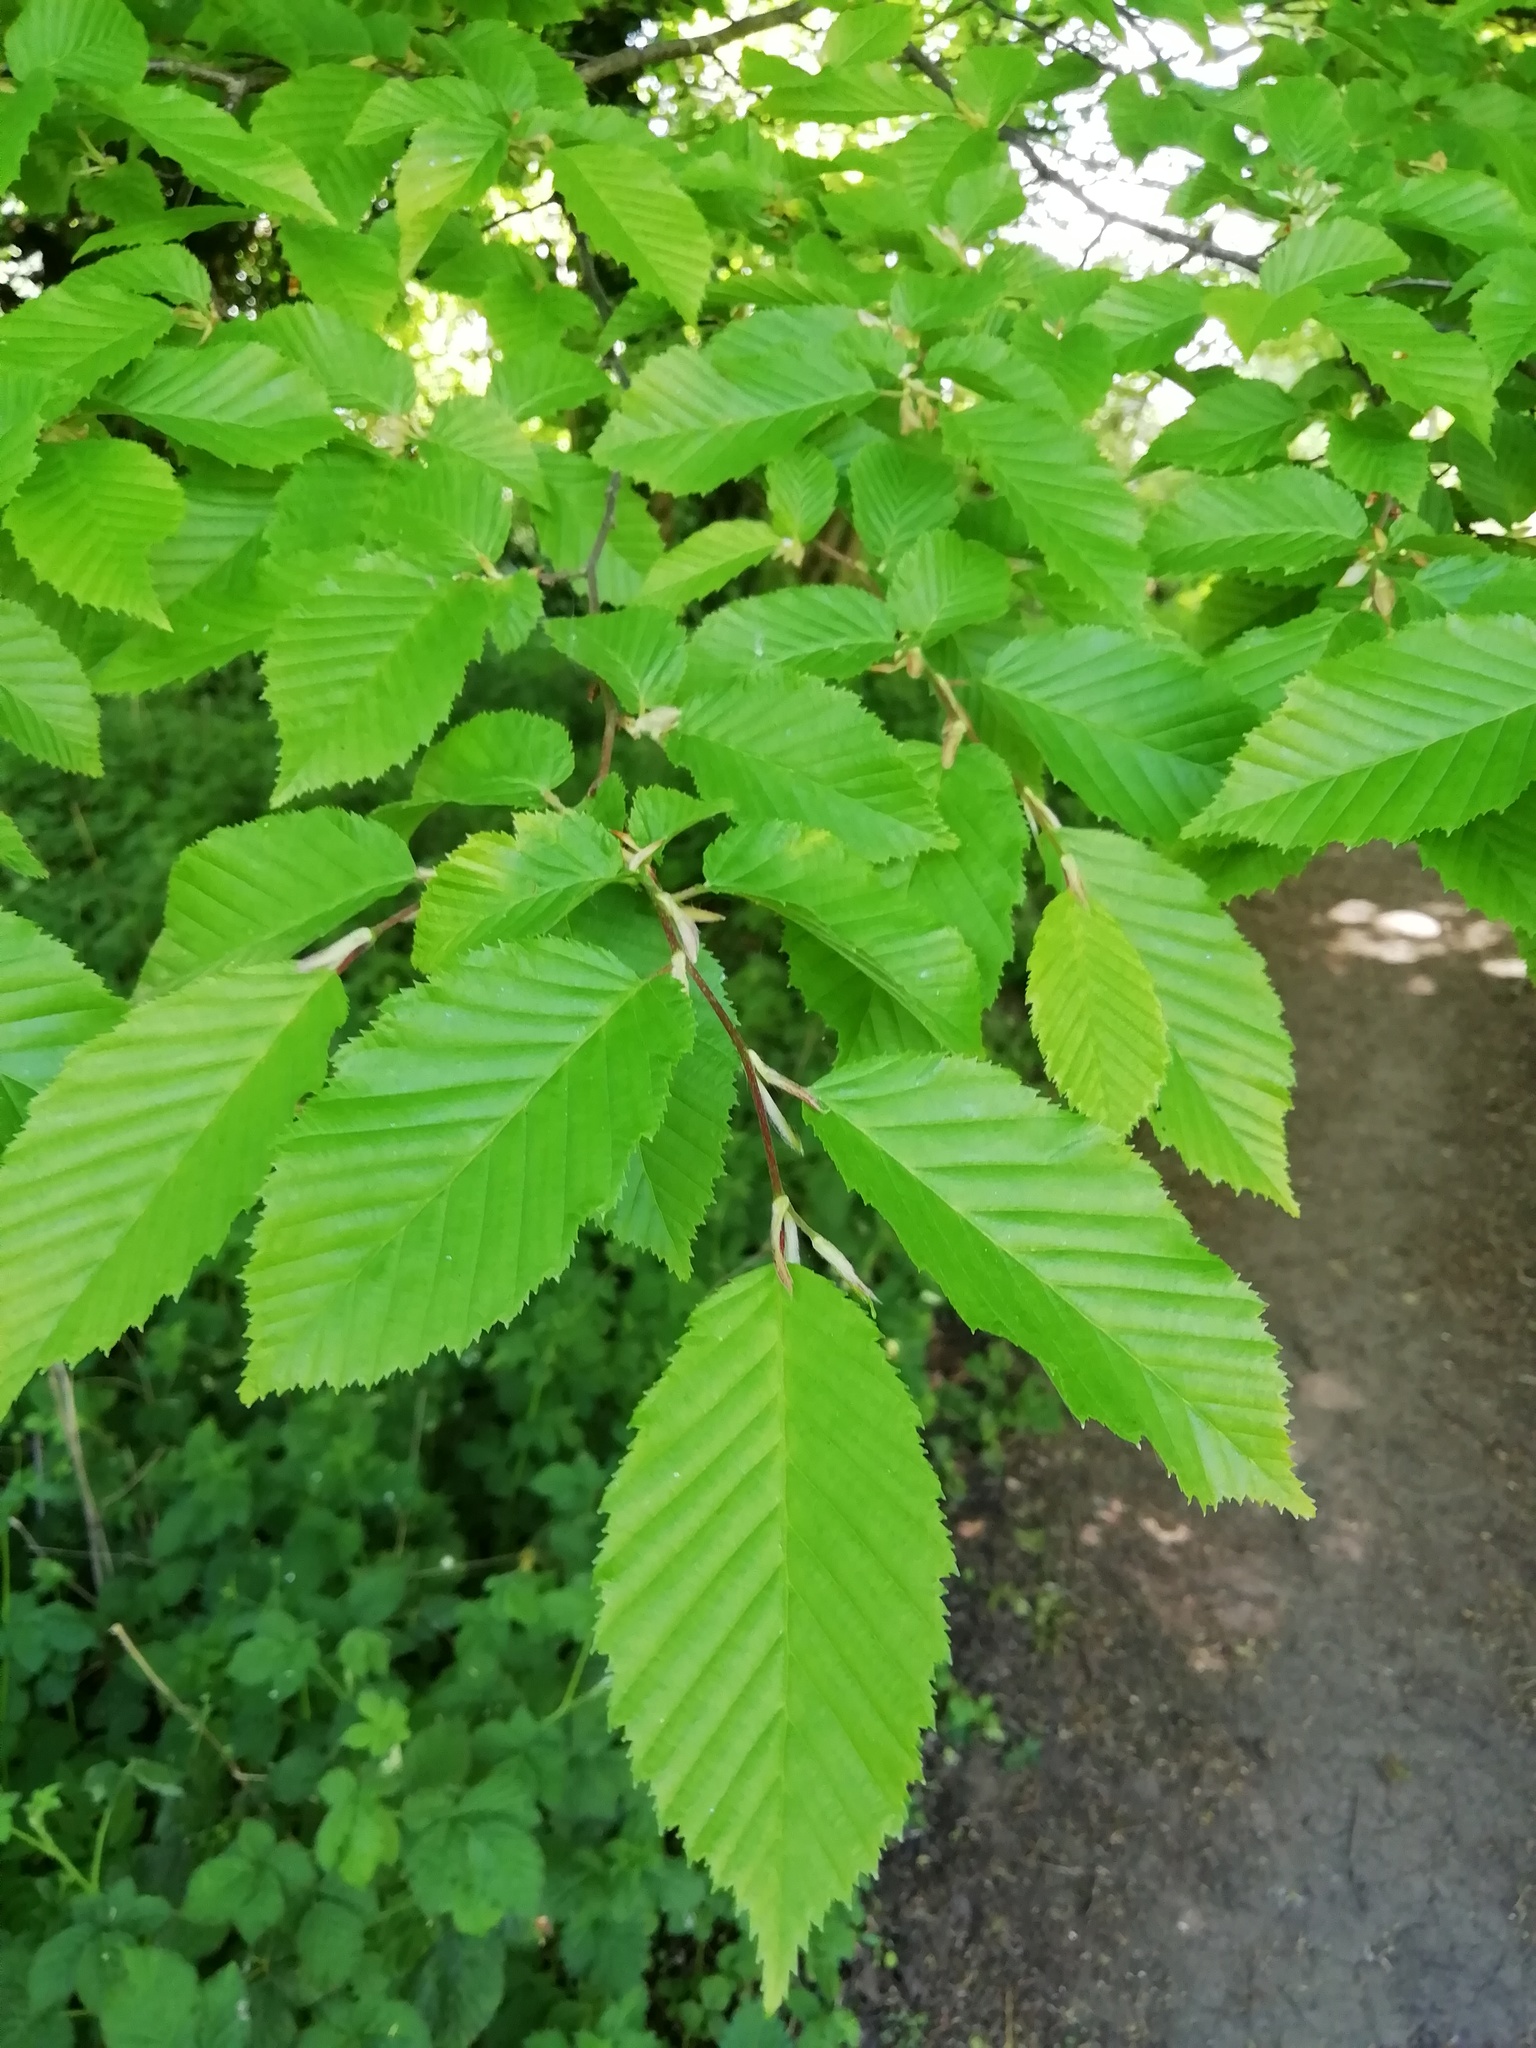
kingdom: Plantae
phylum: Tracheophyta
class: Magnoliopsida
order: Fagales
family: Betulaceae
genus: Carpinus
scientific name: Carpinus betulus
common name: Hornbeam
